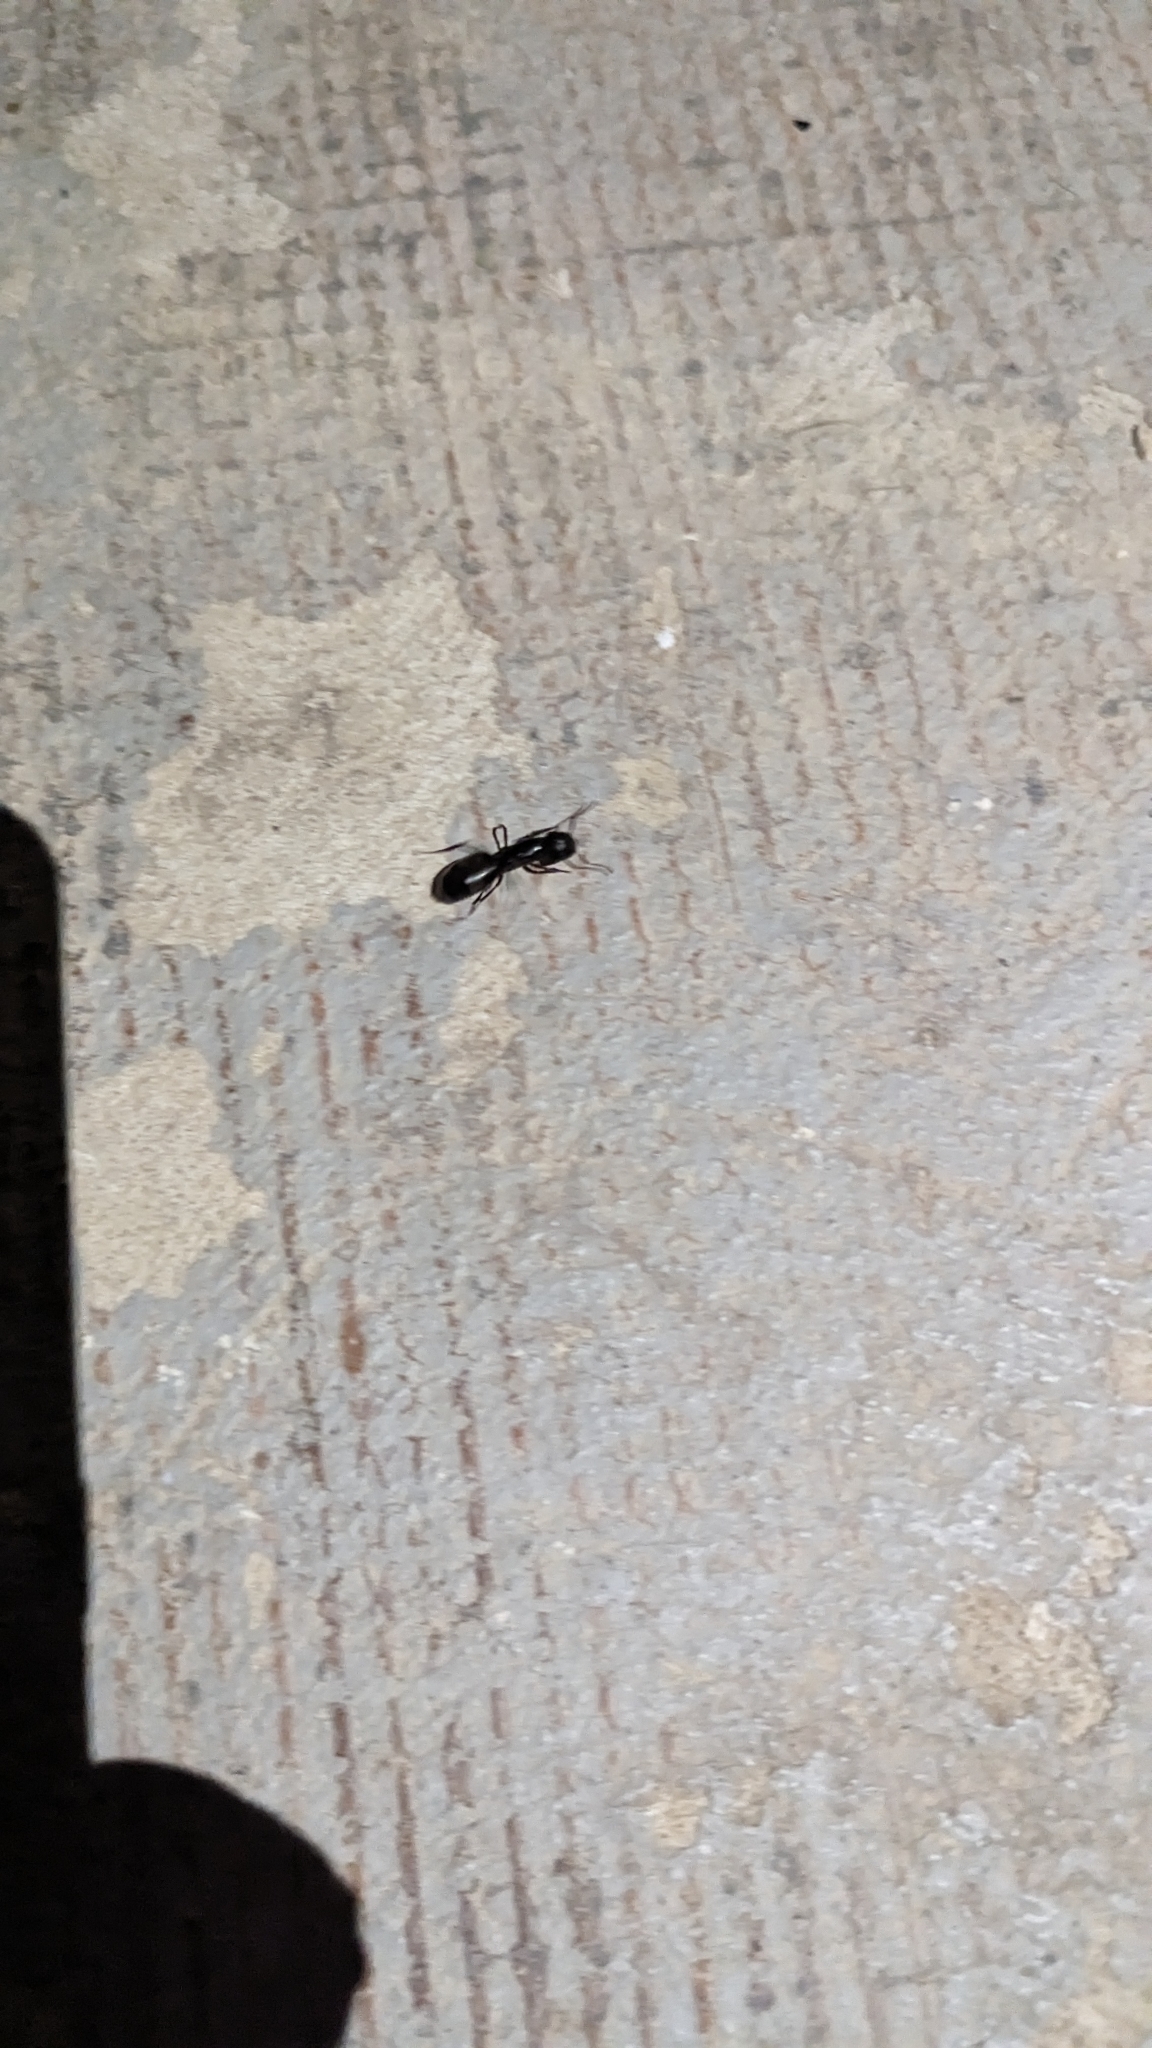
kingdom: Animalia
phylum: Arthropoda
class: Insecta
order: Hymenoptera
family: Formicidae
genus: Camponotus
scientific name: Camponotus nearcticus
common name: Smaller carpenter ant
